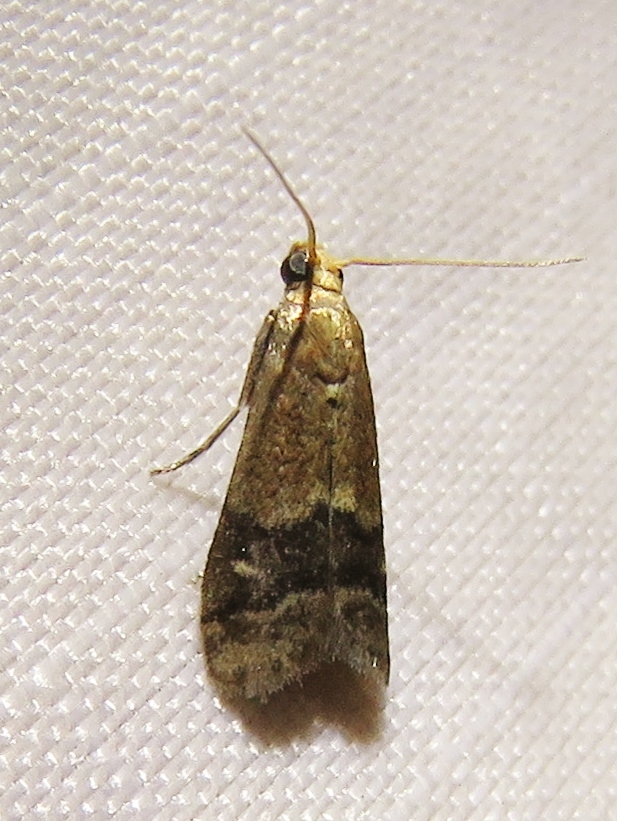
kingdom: Animalia
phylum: Arthropoda
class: Insecta
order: Lepidoptera
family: Pyralidae
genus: Eulogia
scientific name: Eulogia ochrifrontella
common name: Broad-banded eulogia moth
